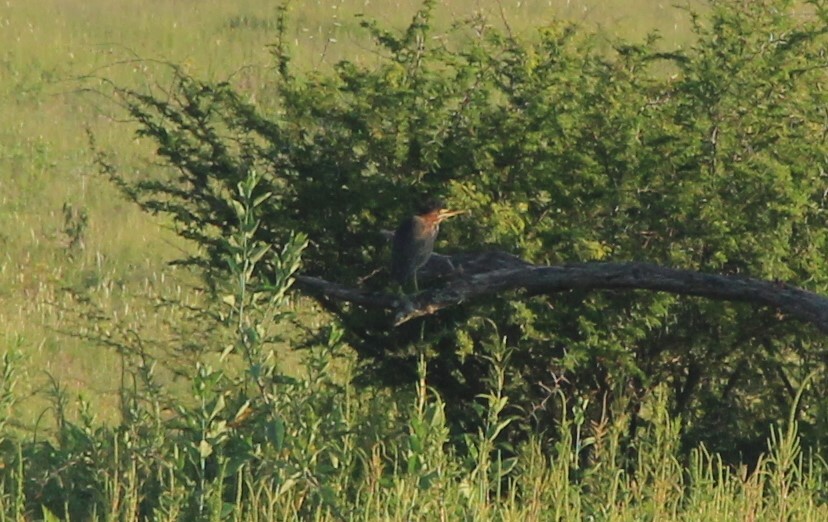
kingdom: Animalia
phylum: Chordata
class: Aves
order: Pelecaniformes
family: Ardeidae
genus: Butorides
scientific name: Butorides virescens
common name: Green heron
